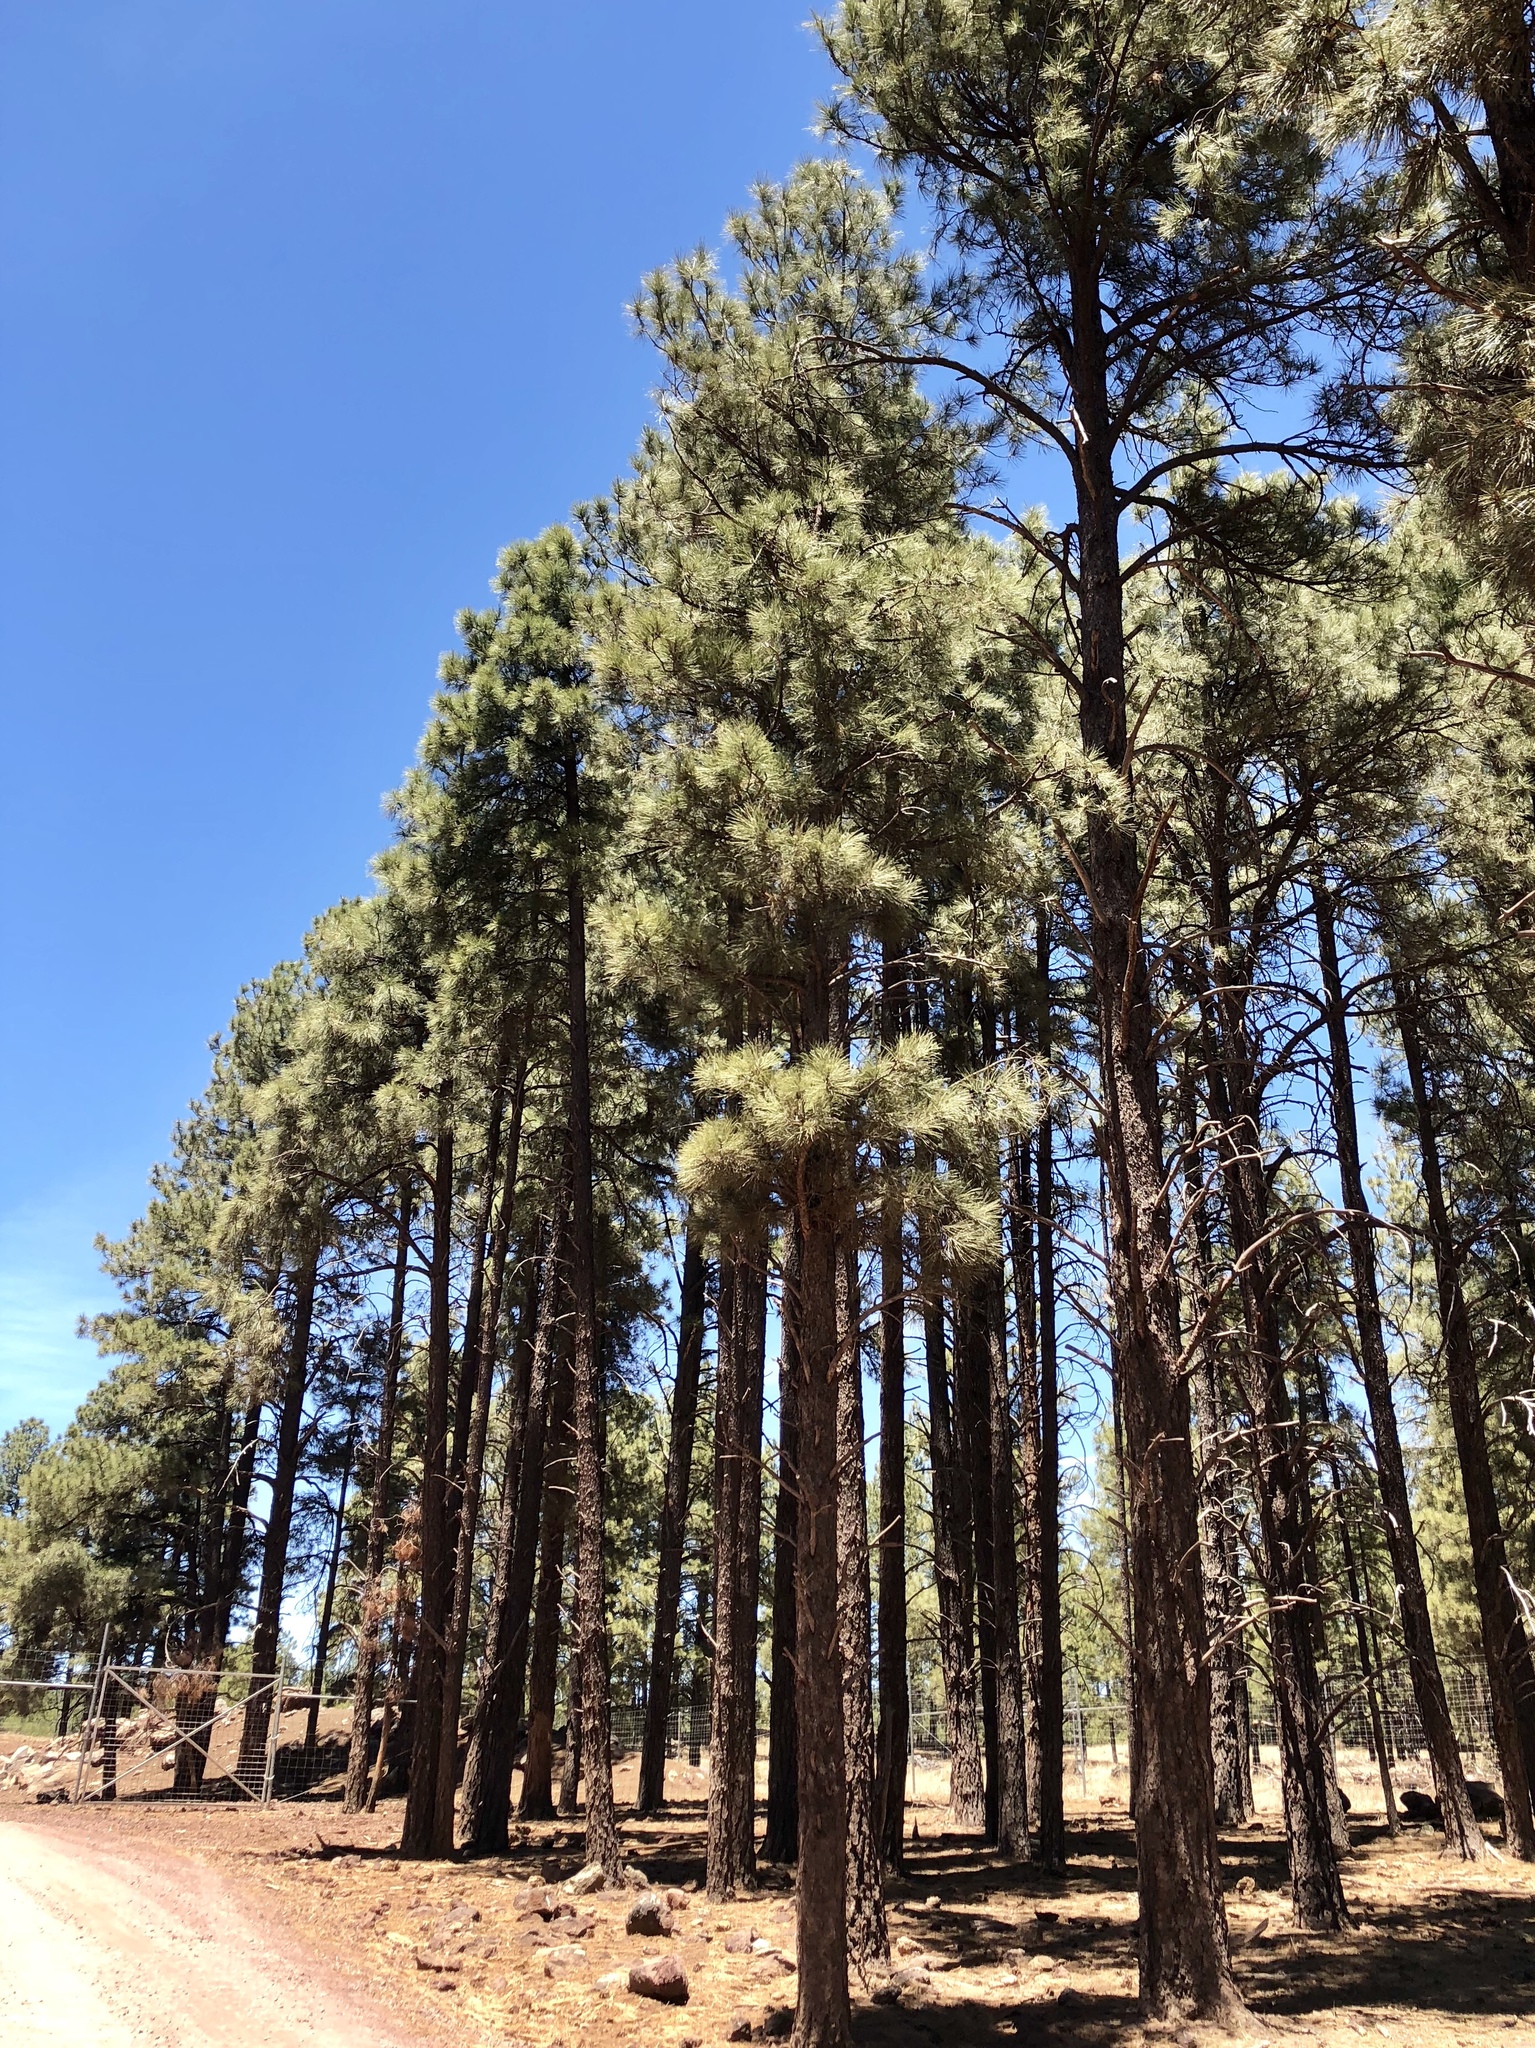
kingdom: Plantae
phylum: Tracheophyta
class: Pinopsida
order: Pinales
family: Pinaceae
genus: Pinus
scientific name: Pinus ponderosa
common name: Western yellow-pine
